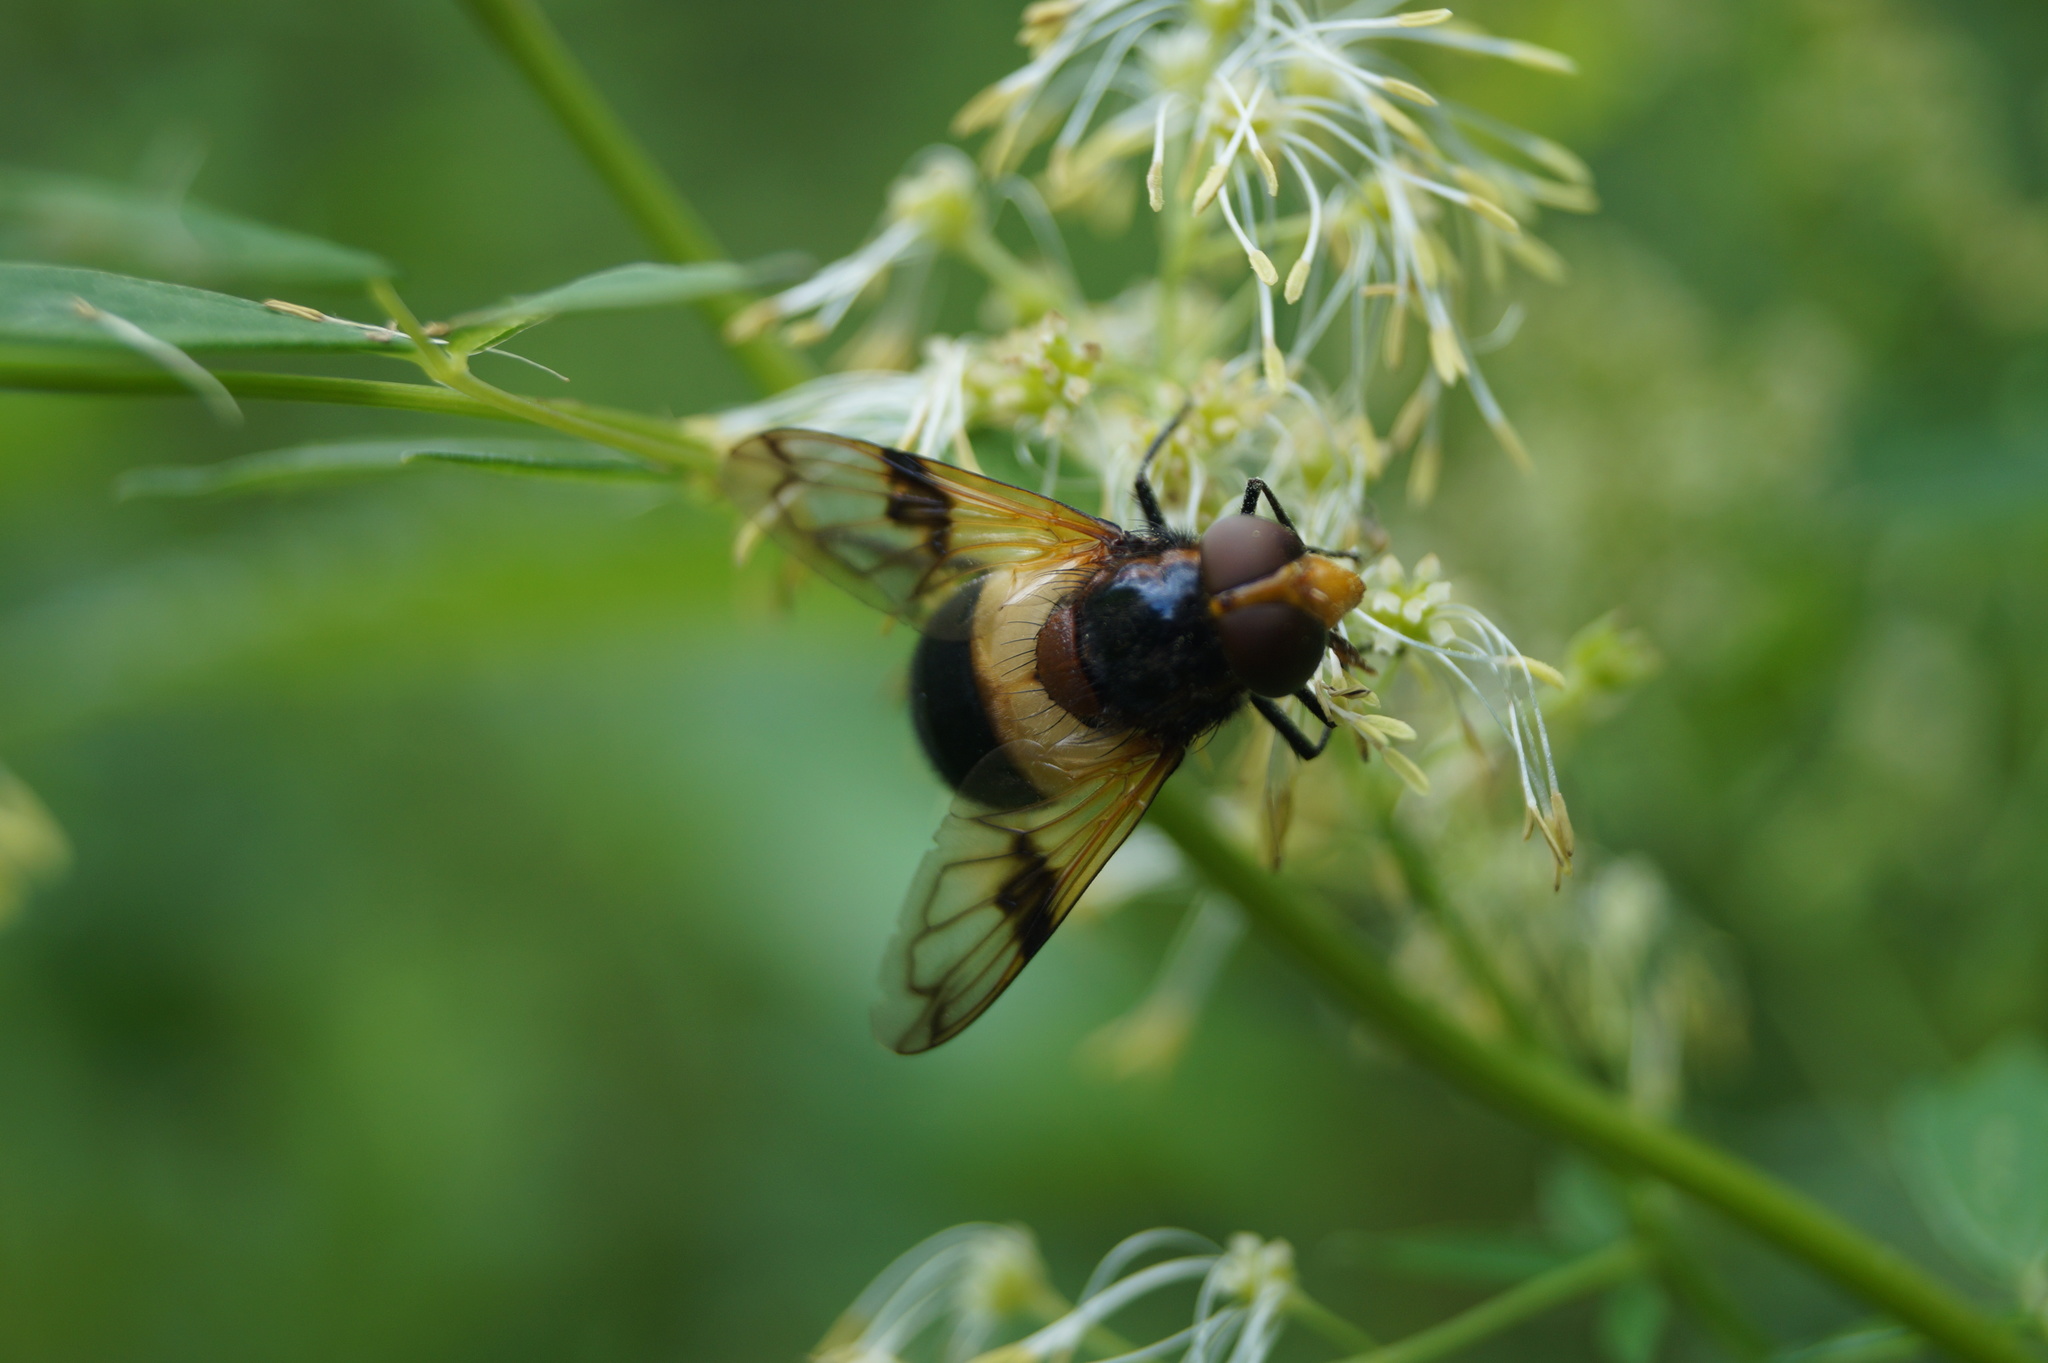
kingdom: Animalia
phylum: Arthropoda
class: Insecta
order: Diptera
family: Syrphidae
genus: Volucella
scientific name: Volucella pellucens
